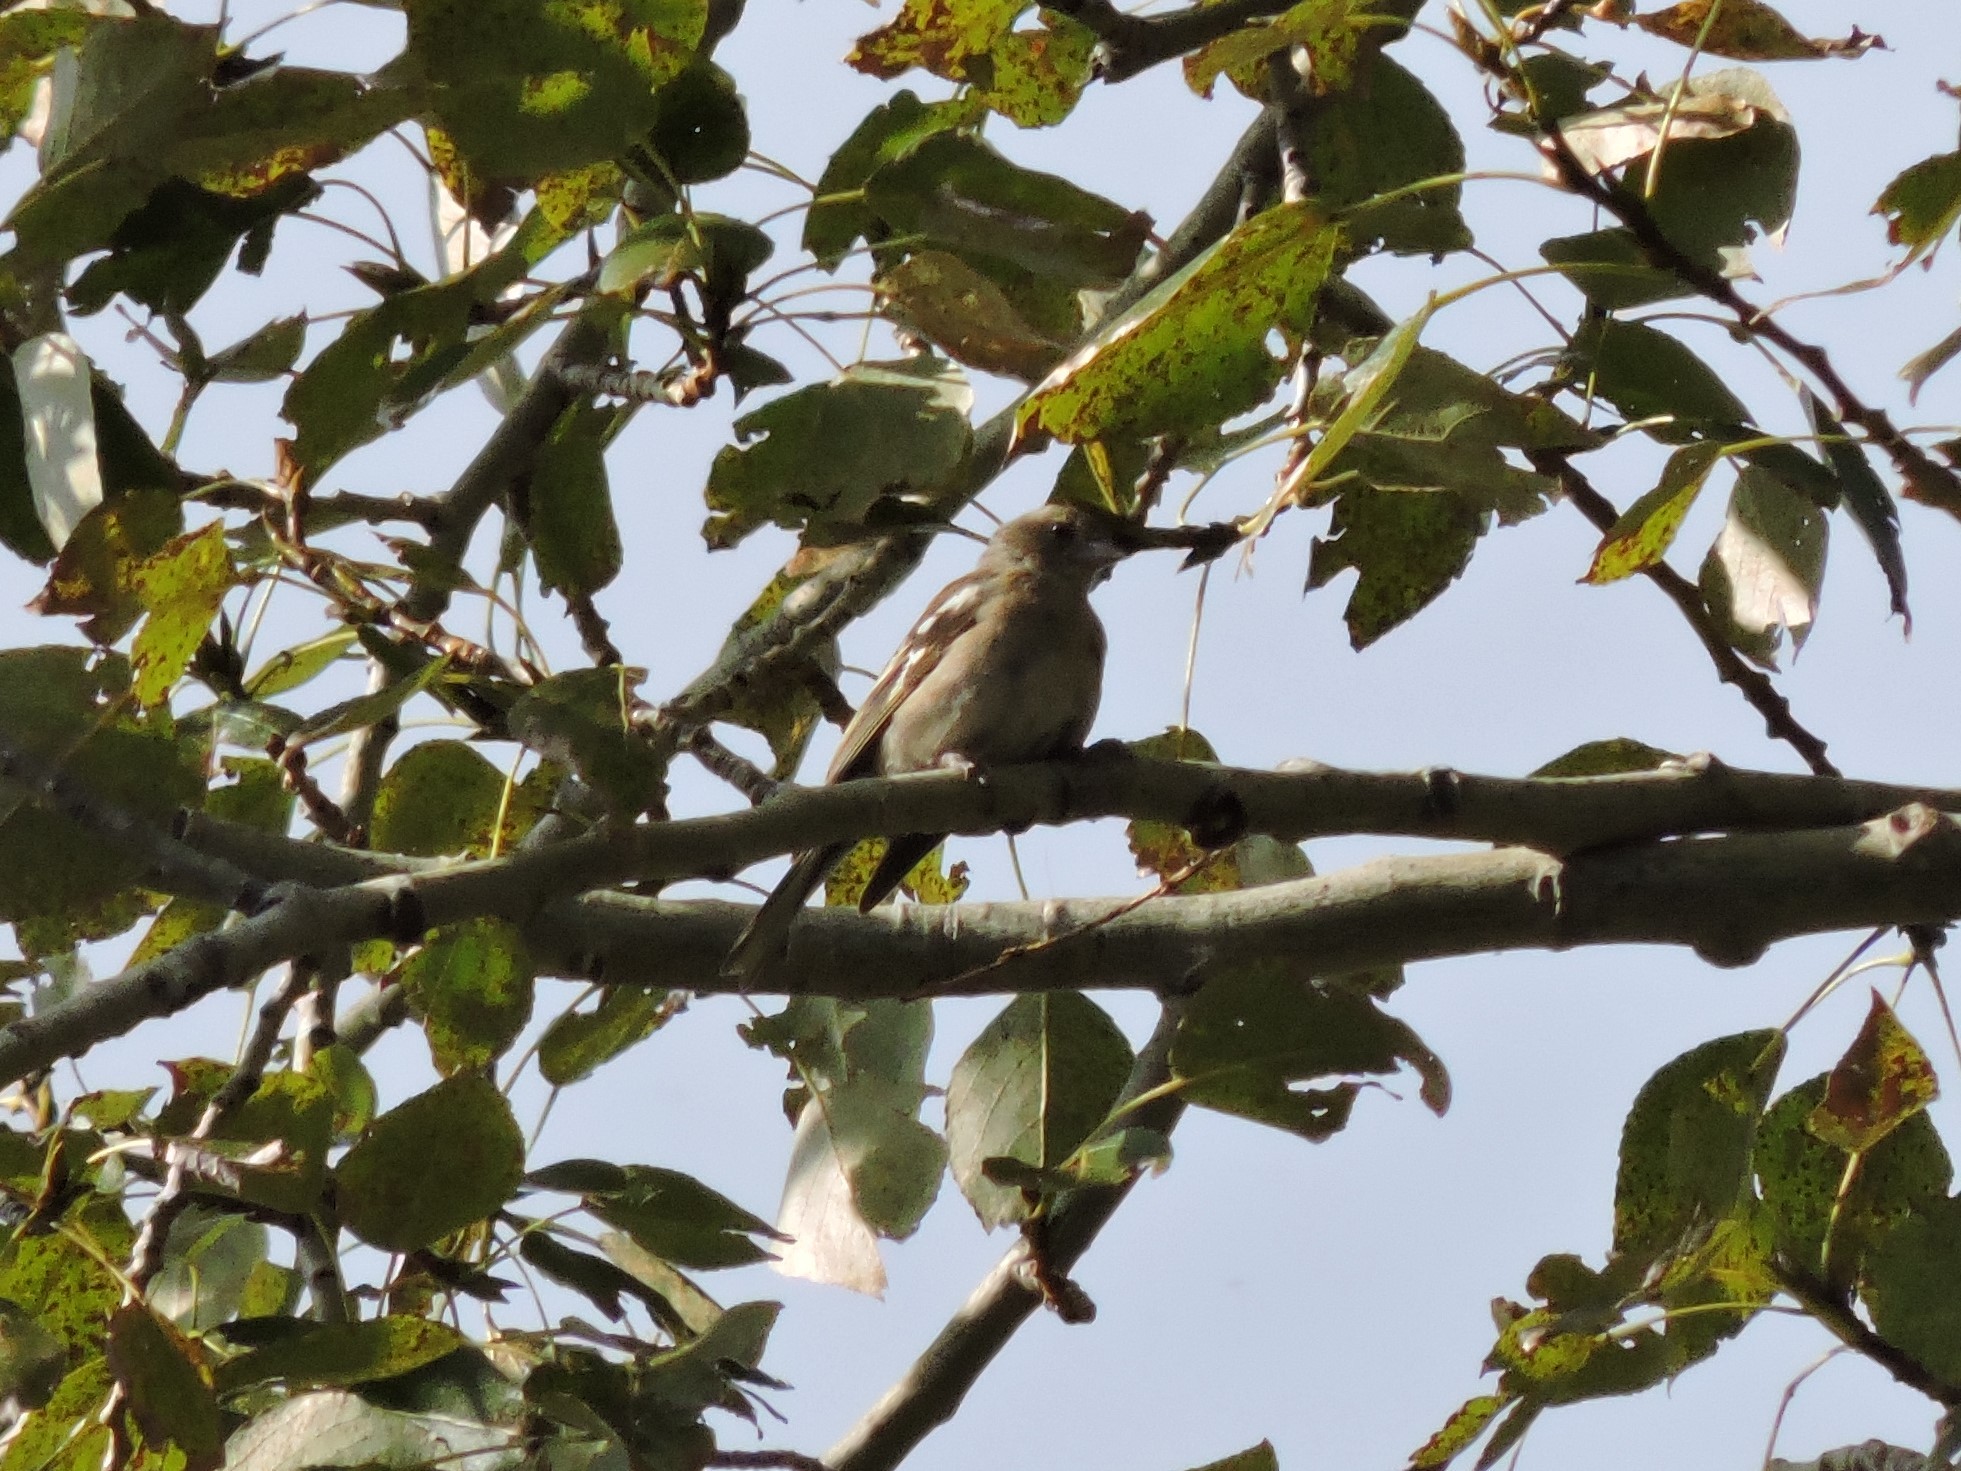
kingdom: Animalia
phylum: Chordata
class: Aves
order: Passeriformes
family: Fringillidae
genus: Fringilla
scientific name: Fringilla coelebs
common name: Common chaffinch
